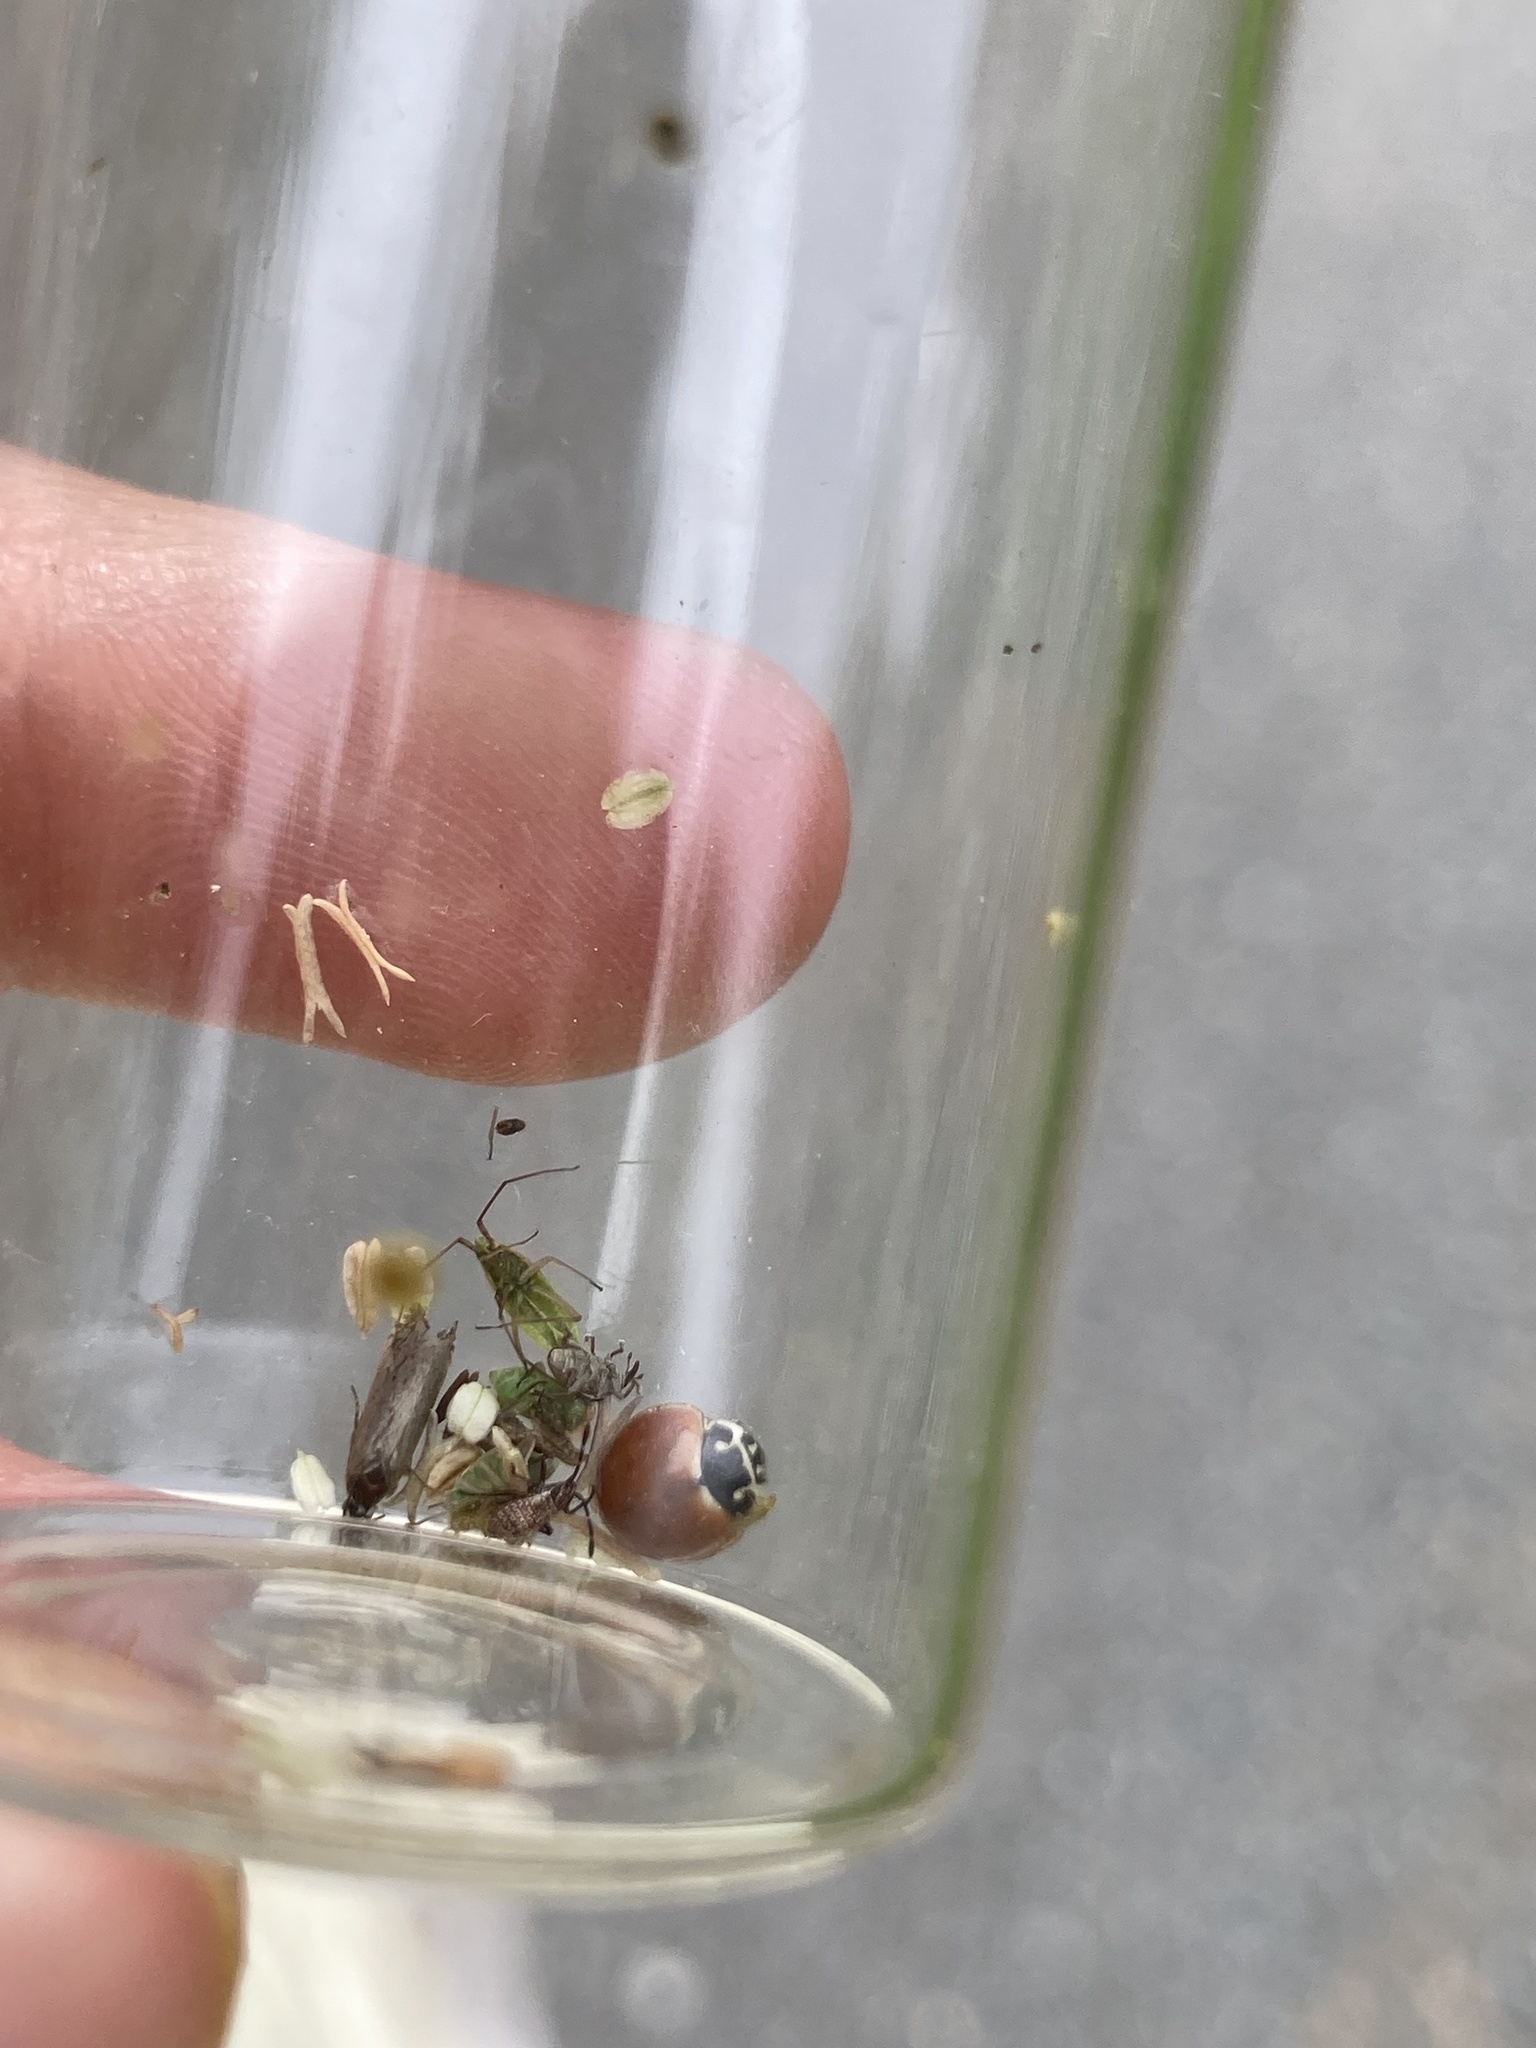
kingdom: Animalia
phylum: Arthropoda
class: Insecta
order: Coleoptera
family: Coccinellidae
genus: Cycloneda
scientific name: Cycloneda munda
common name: Polished lady beetle
